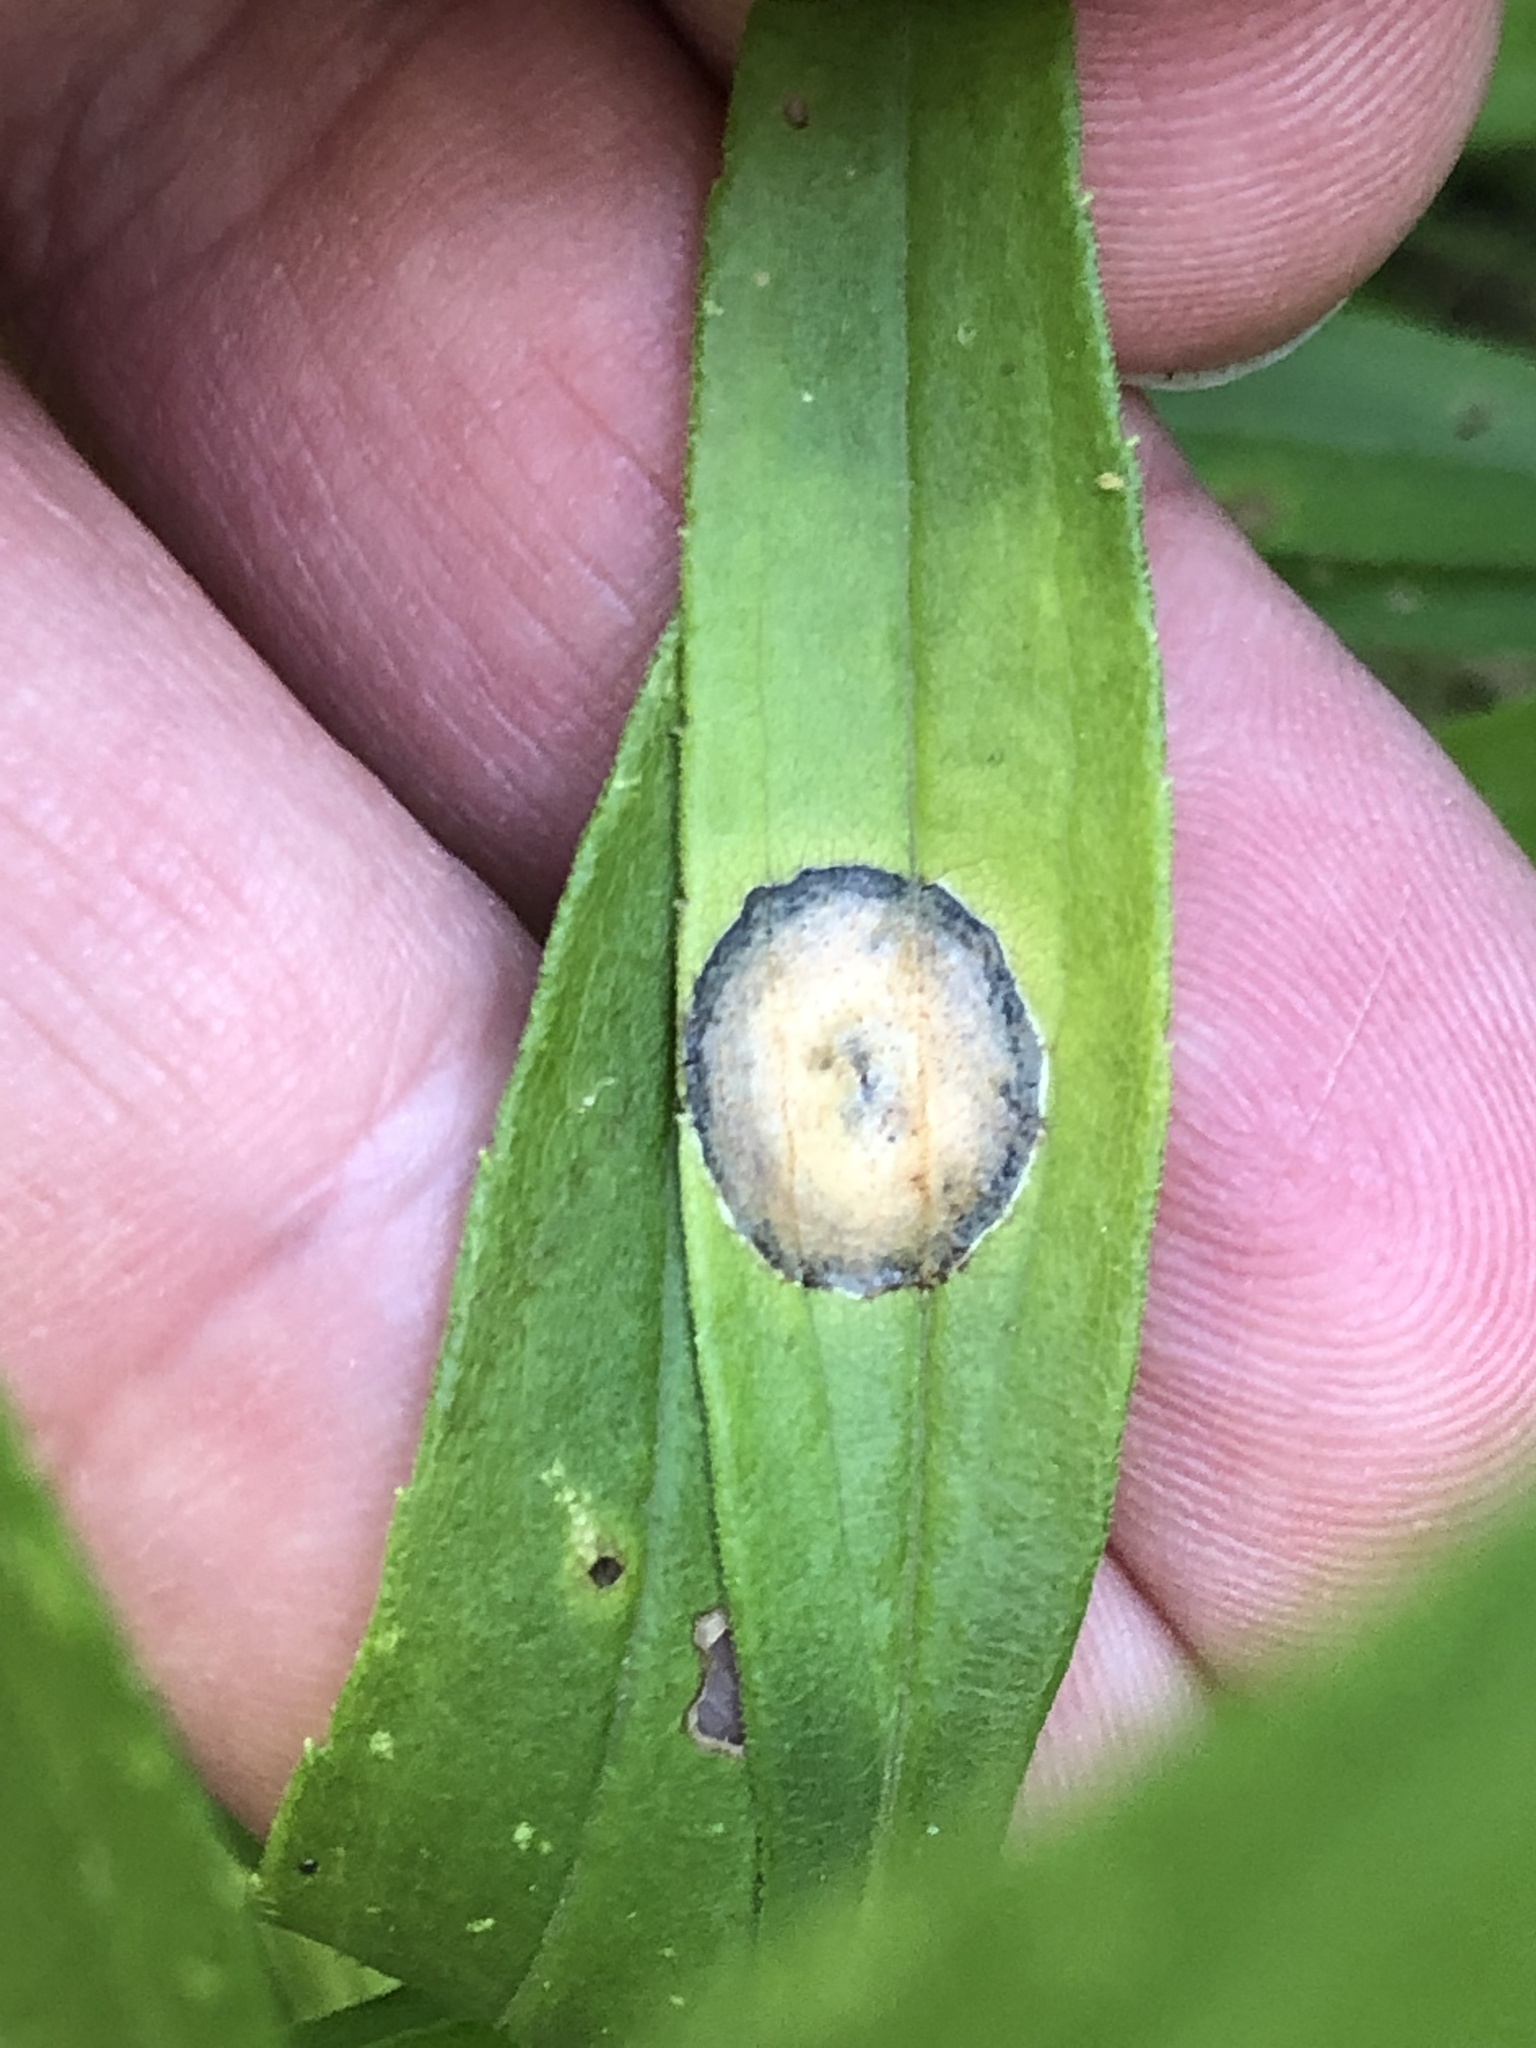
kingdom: Animalia
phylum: Arthropoda
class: Insecta
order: Diptera
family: Cecidomyiidae
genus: Asteromyia
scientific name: Asteromyia carbonifera
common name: Carbonifera goldenrod gall midge
